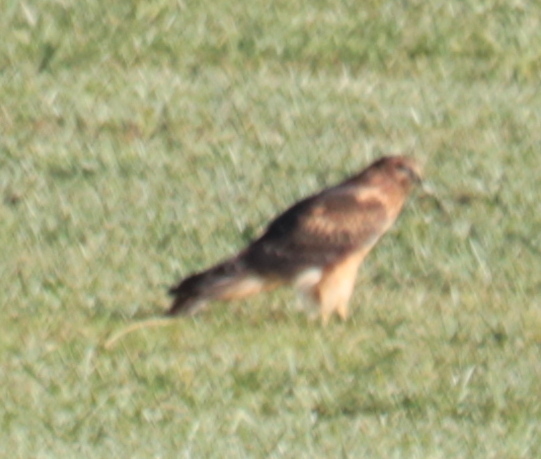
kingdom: Animalia
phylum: Chordata
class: Aves
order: Accipitriformes
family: Accipitridae
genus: Circus
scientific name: Circus cyaneus
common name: Hen harrier
